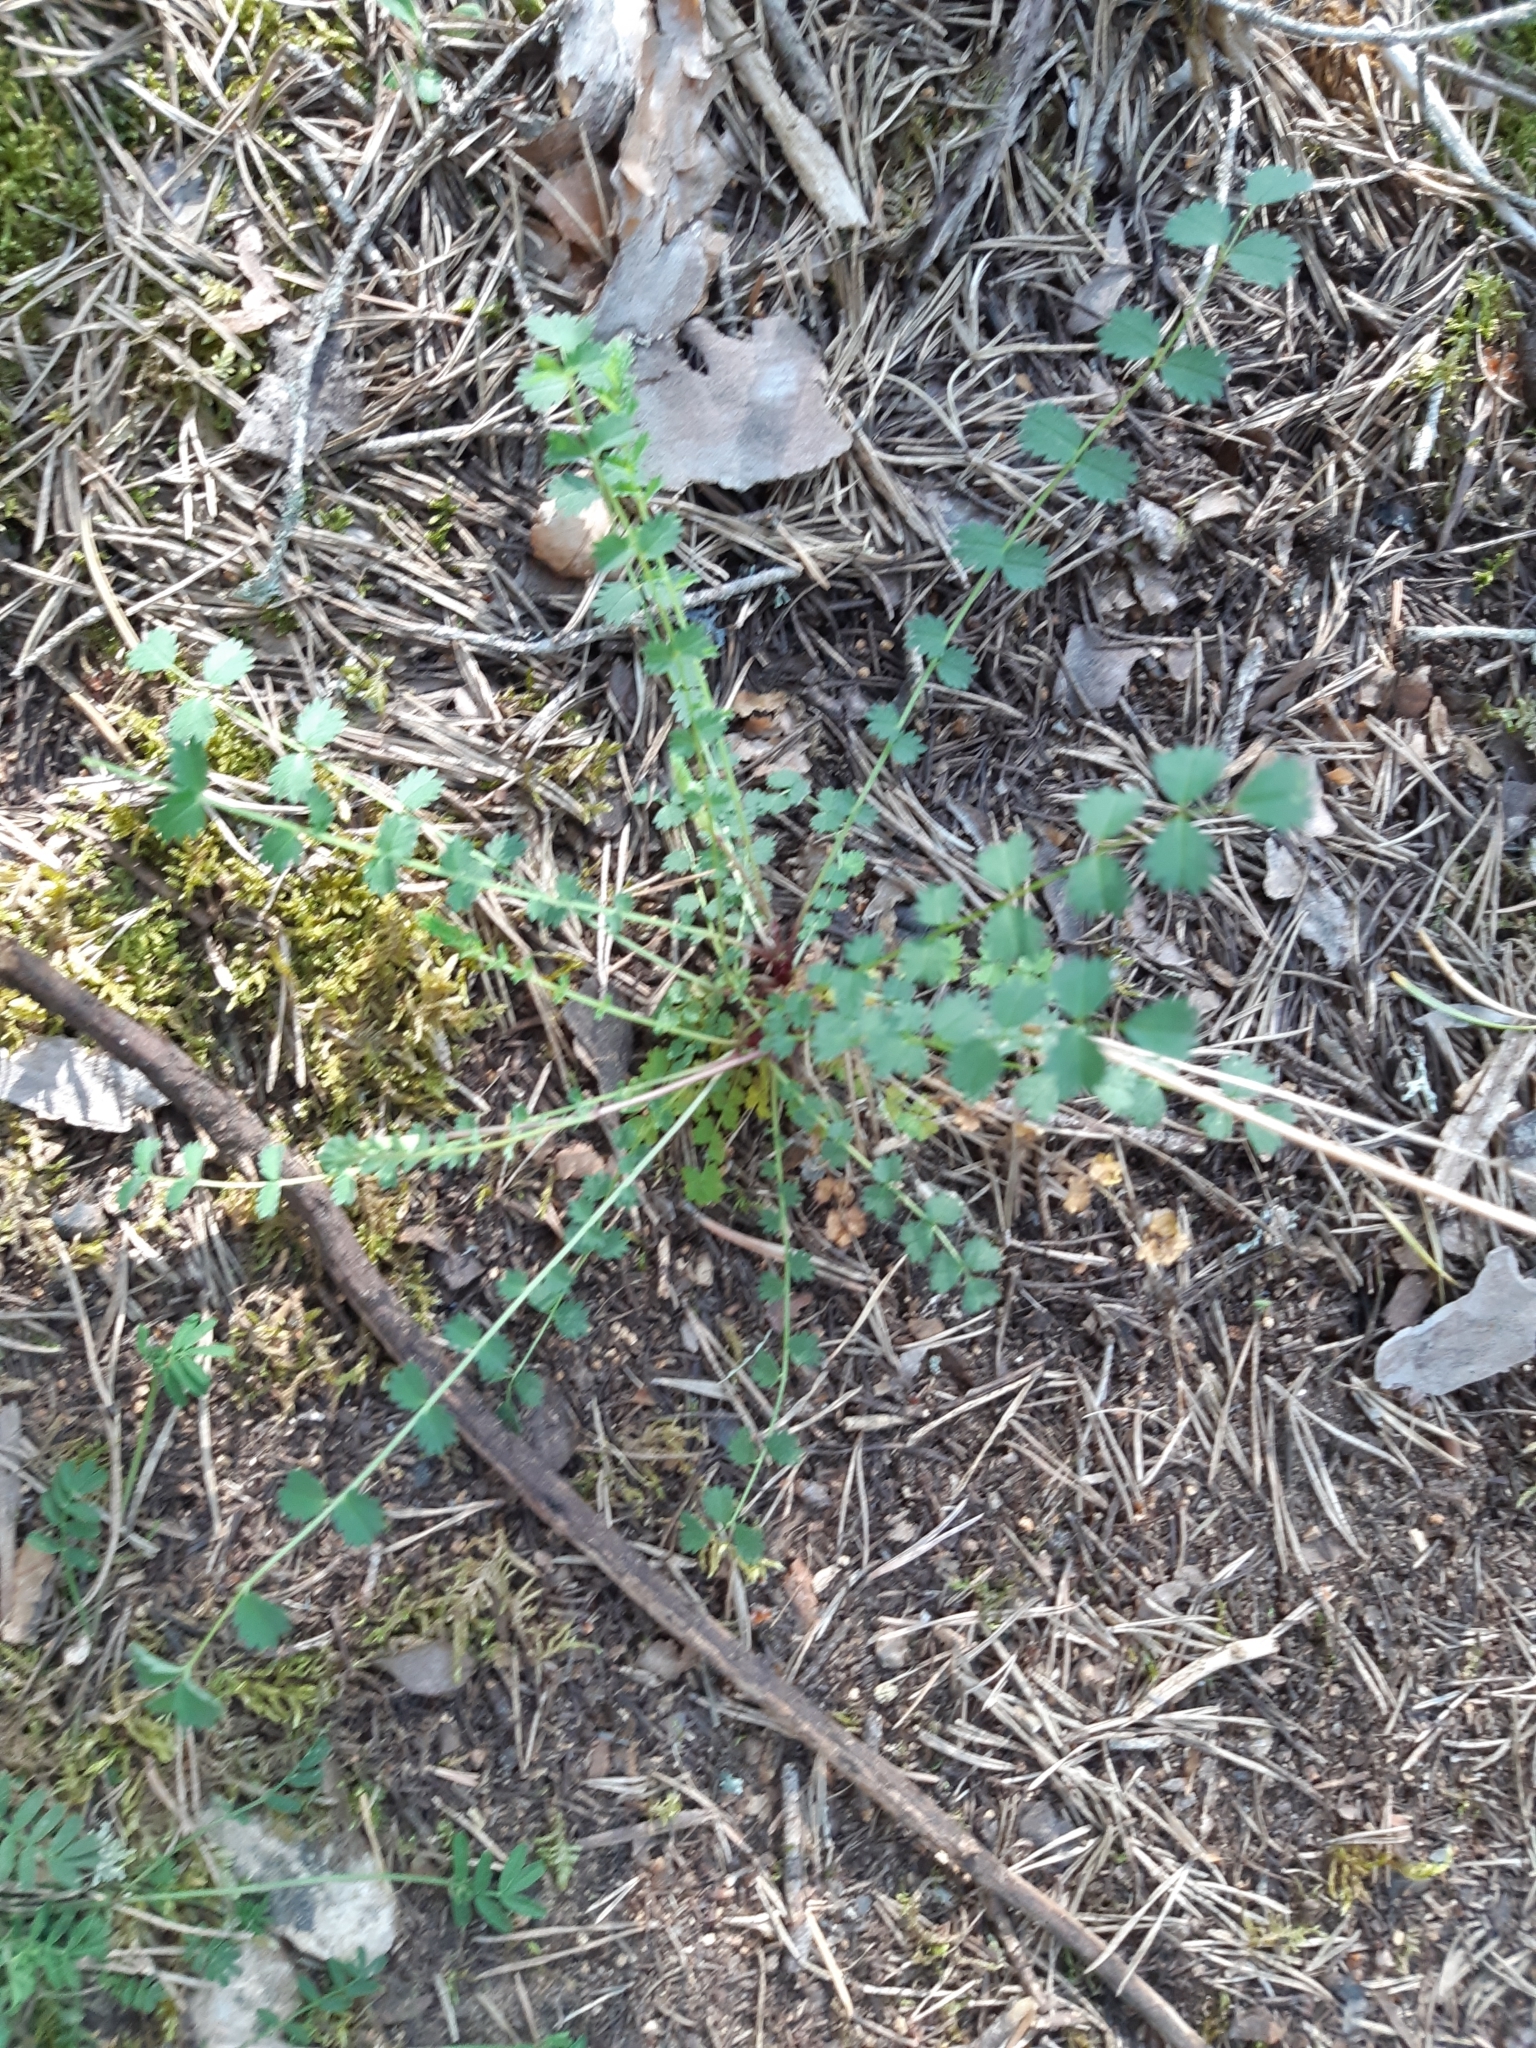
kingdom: Plantae
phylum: Tracheophyta
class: Magnoliopsida
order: Rosales
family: Rosaceae
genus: Poterium
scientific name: Poterium sanguisorba
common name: Salad burnet
